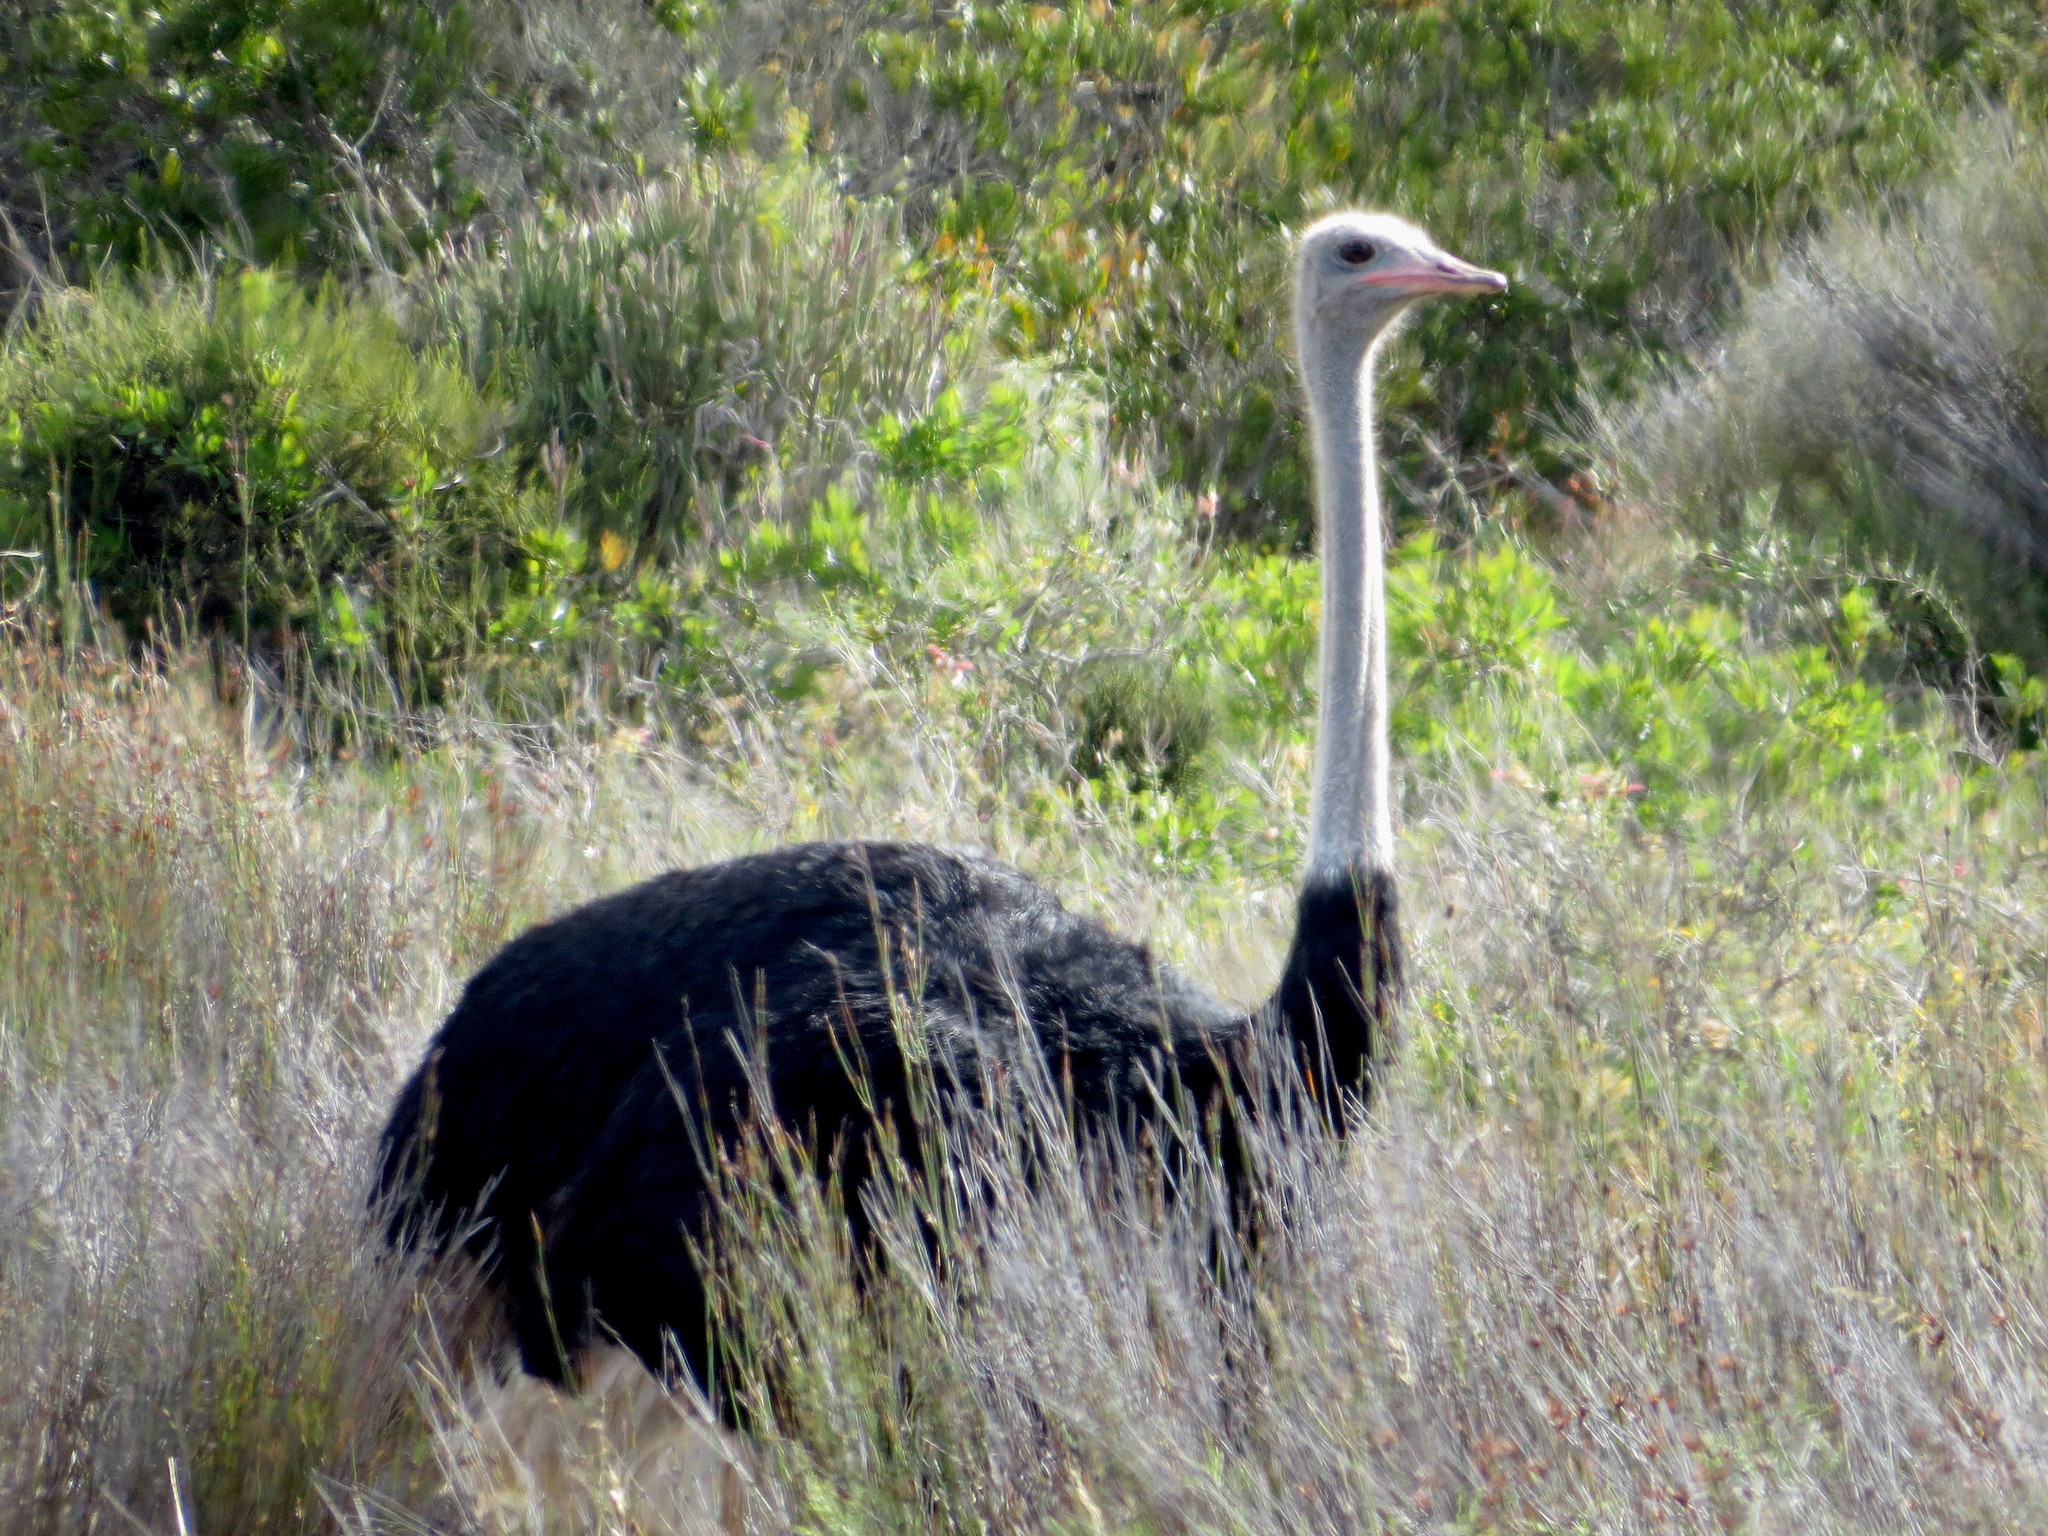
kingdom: Animalia
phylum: Chordata
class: Aves
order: Struthioniformes
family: Struthionidae
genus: Struthio
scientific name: Struthio camelus
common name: Common ostrich
